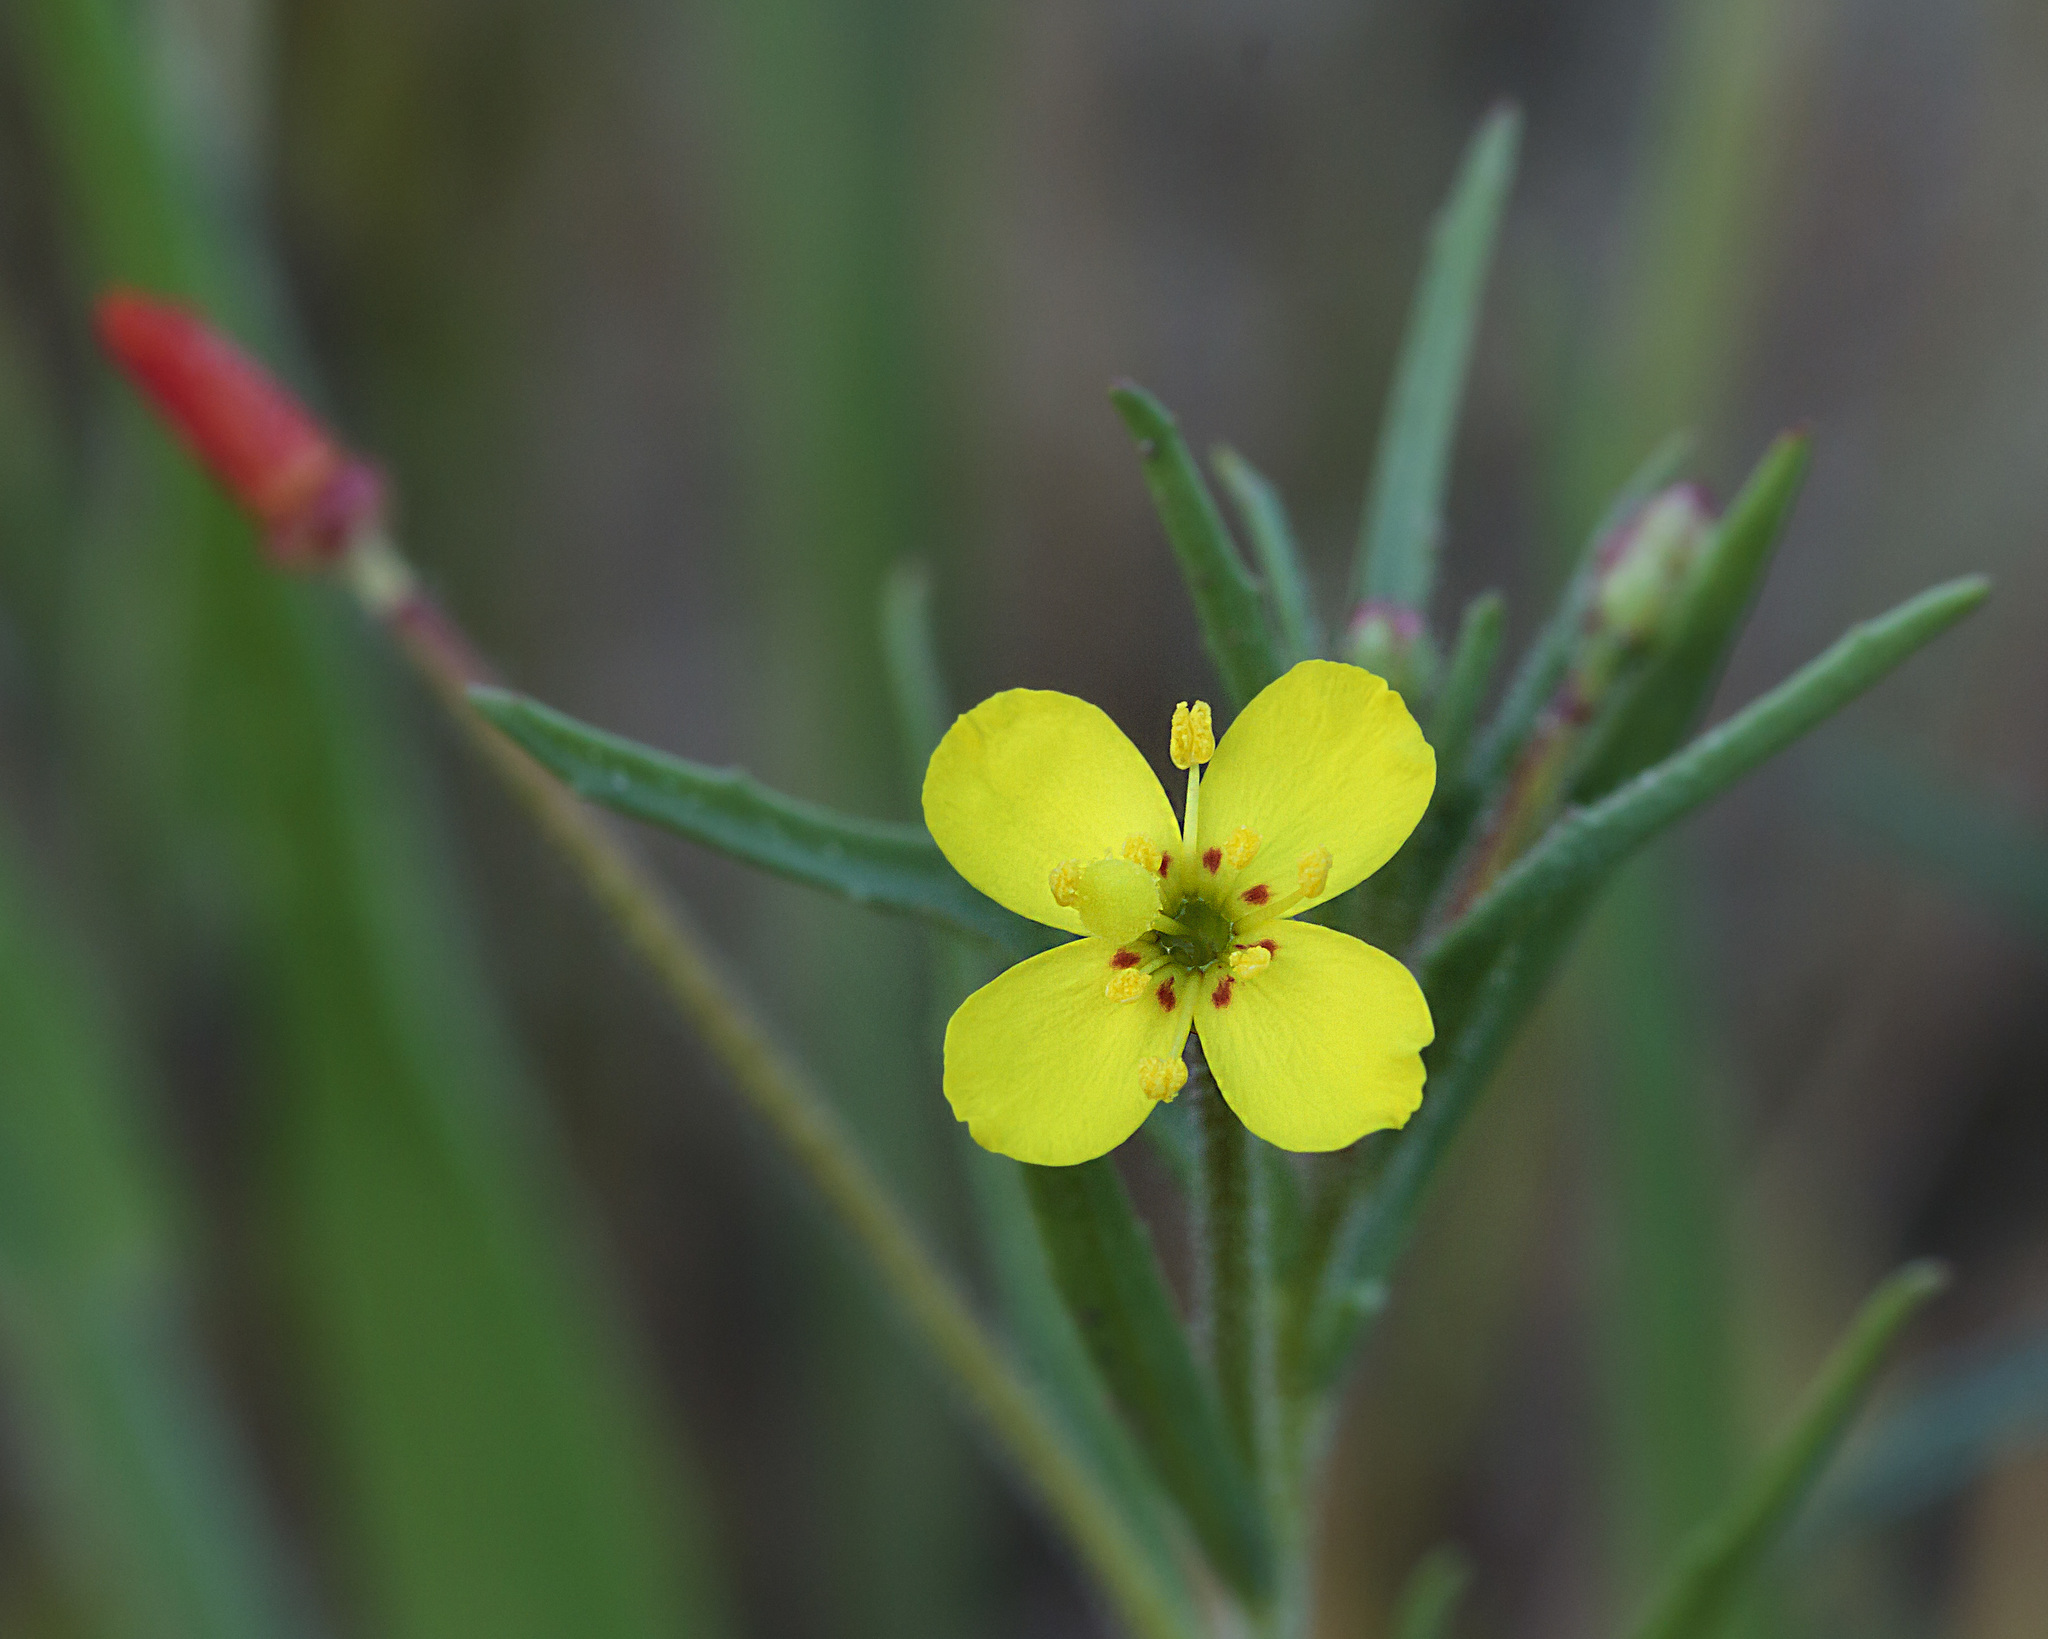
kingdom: Plantae
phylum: Tracheophyta
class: Magnoliopsida
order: Myrtales
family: Onagraceae
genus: Camissonia
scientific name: Camissonia sierrae
